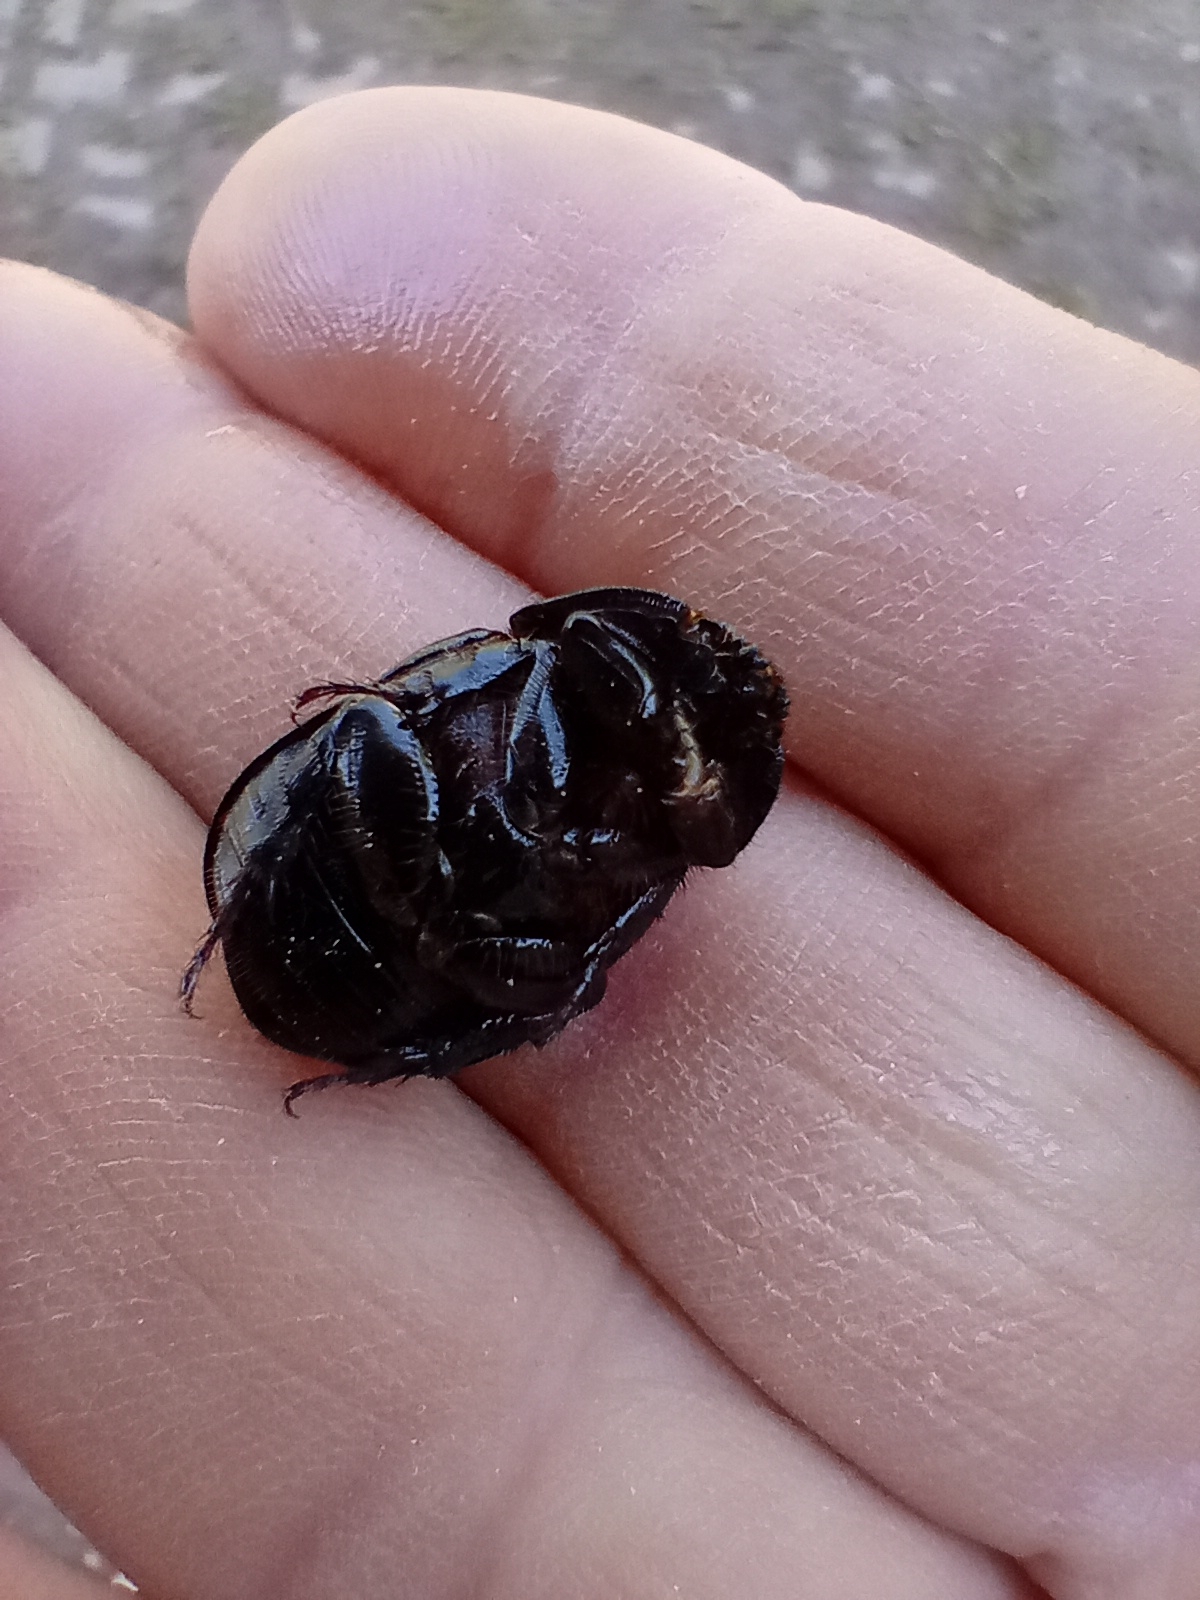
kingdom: Animalia
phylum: Arthropoda
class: Insecta
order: Coleoptera
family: Scarabaeidae
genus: Pentodon
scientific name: Pentodon bidens
